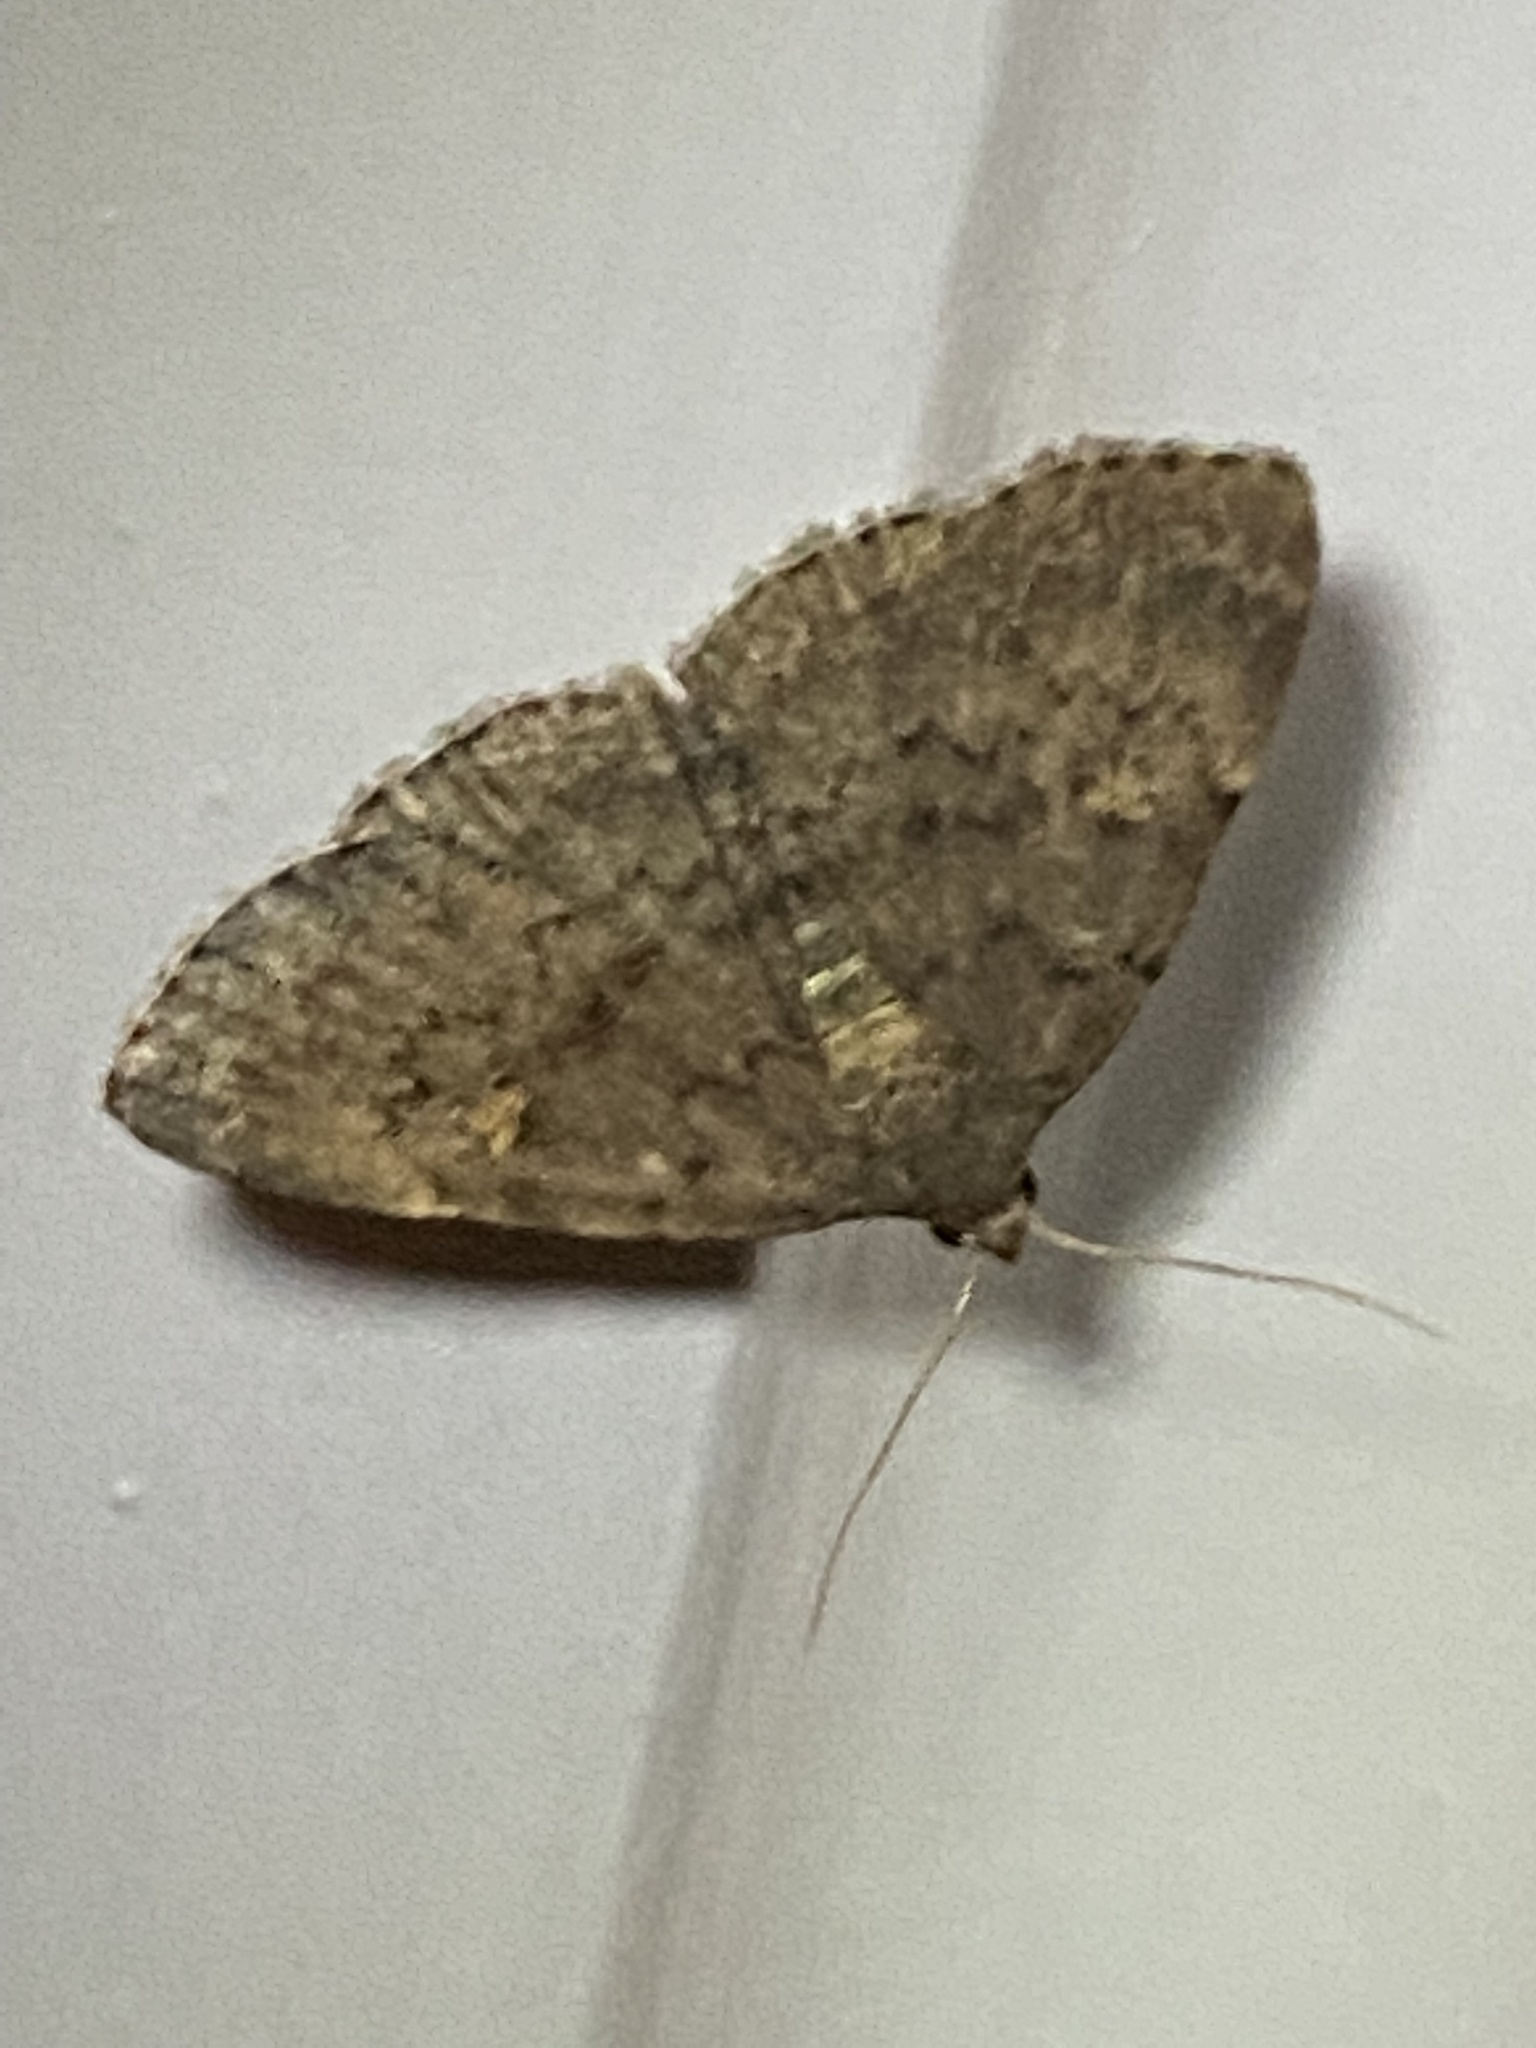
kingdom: Animalia
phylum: Arthropoda
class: Insecta
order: Lepidoptera
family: Erebidae
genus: Idia
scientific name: Idia aemula
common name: Common idia moth
